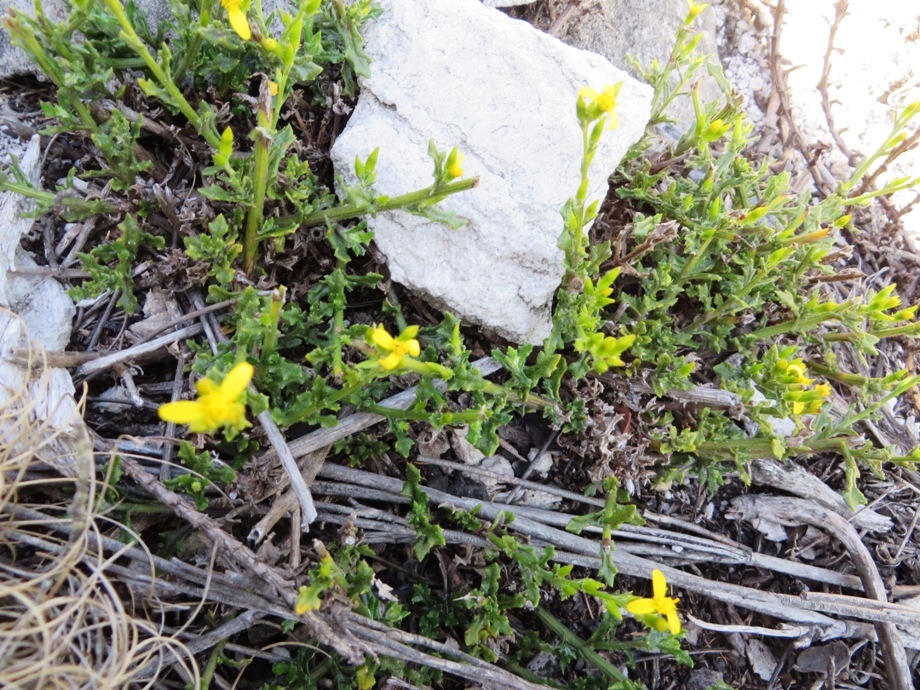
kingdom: Plantae
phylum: Tracheophyta
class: Magnoliopsida
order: Asterales
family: Asteraceae
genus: Senecio
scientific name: Senecio pubigerus
